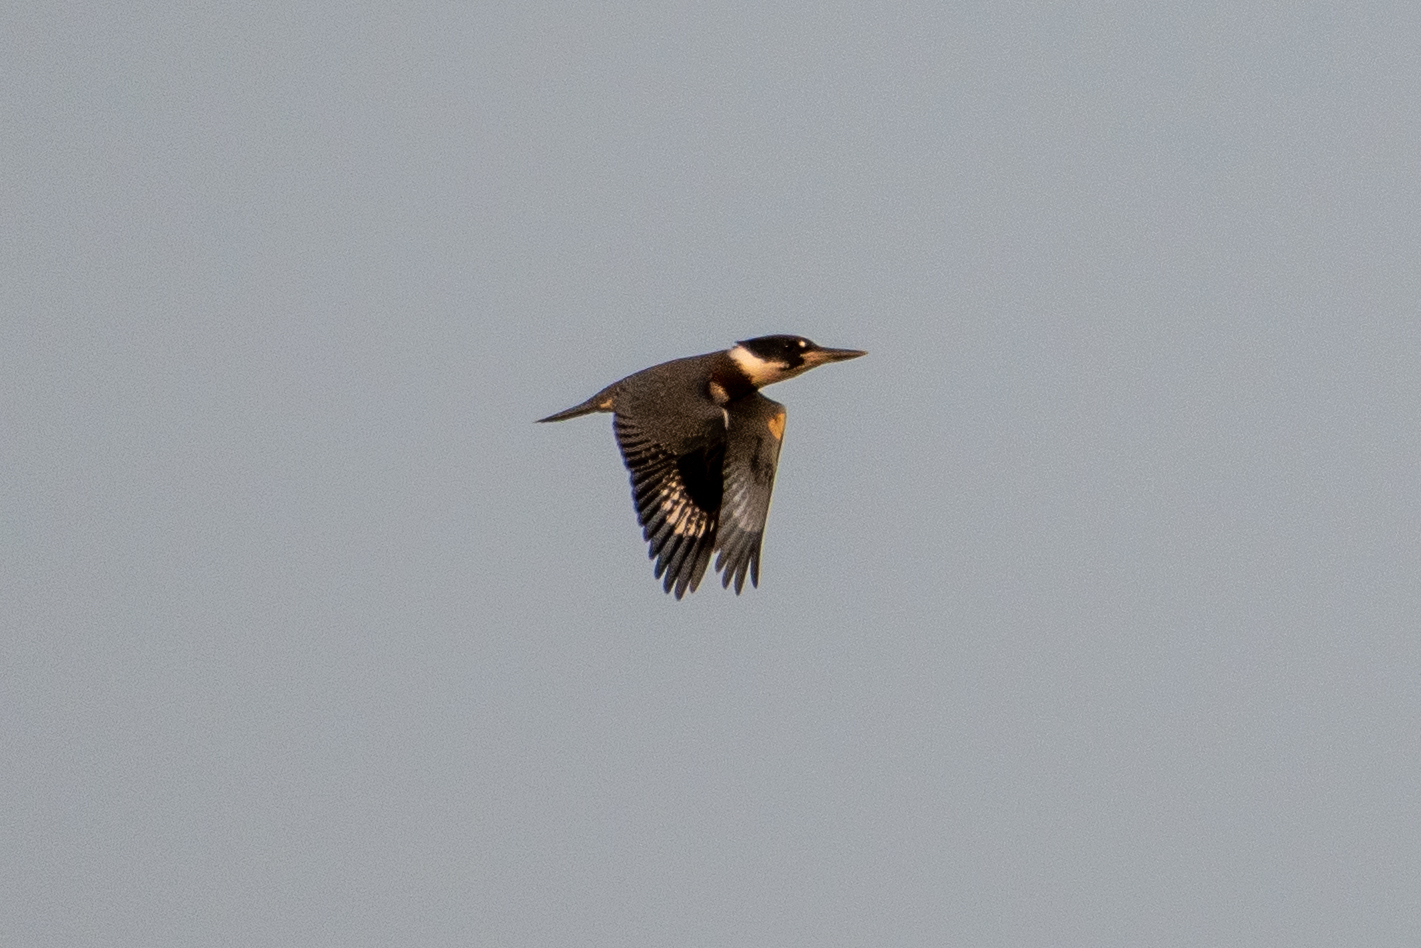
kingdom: Animalia
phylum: Chordata
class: Aves
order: Coraciiformes
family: Alcedinidae
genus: Megaceryle
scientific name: Megaceryle alcyon
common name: Belted kingfisher
